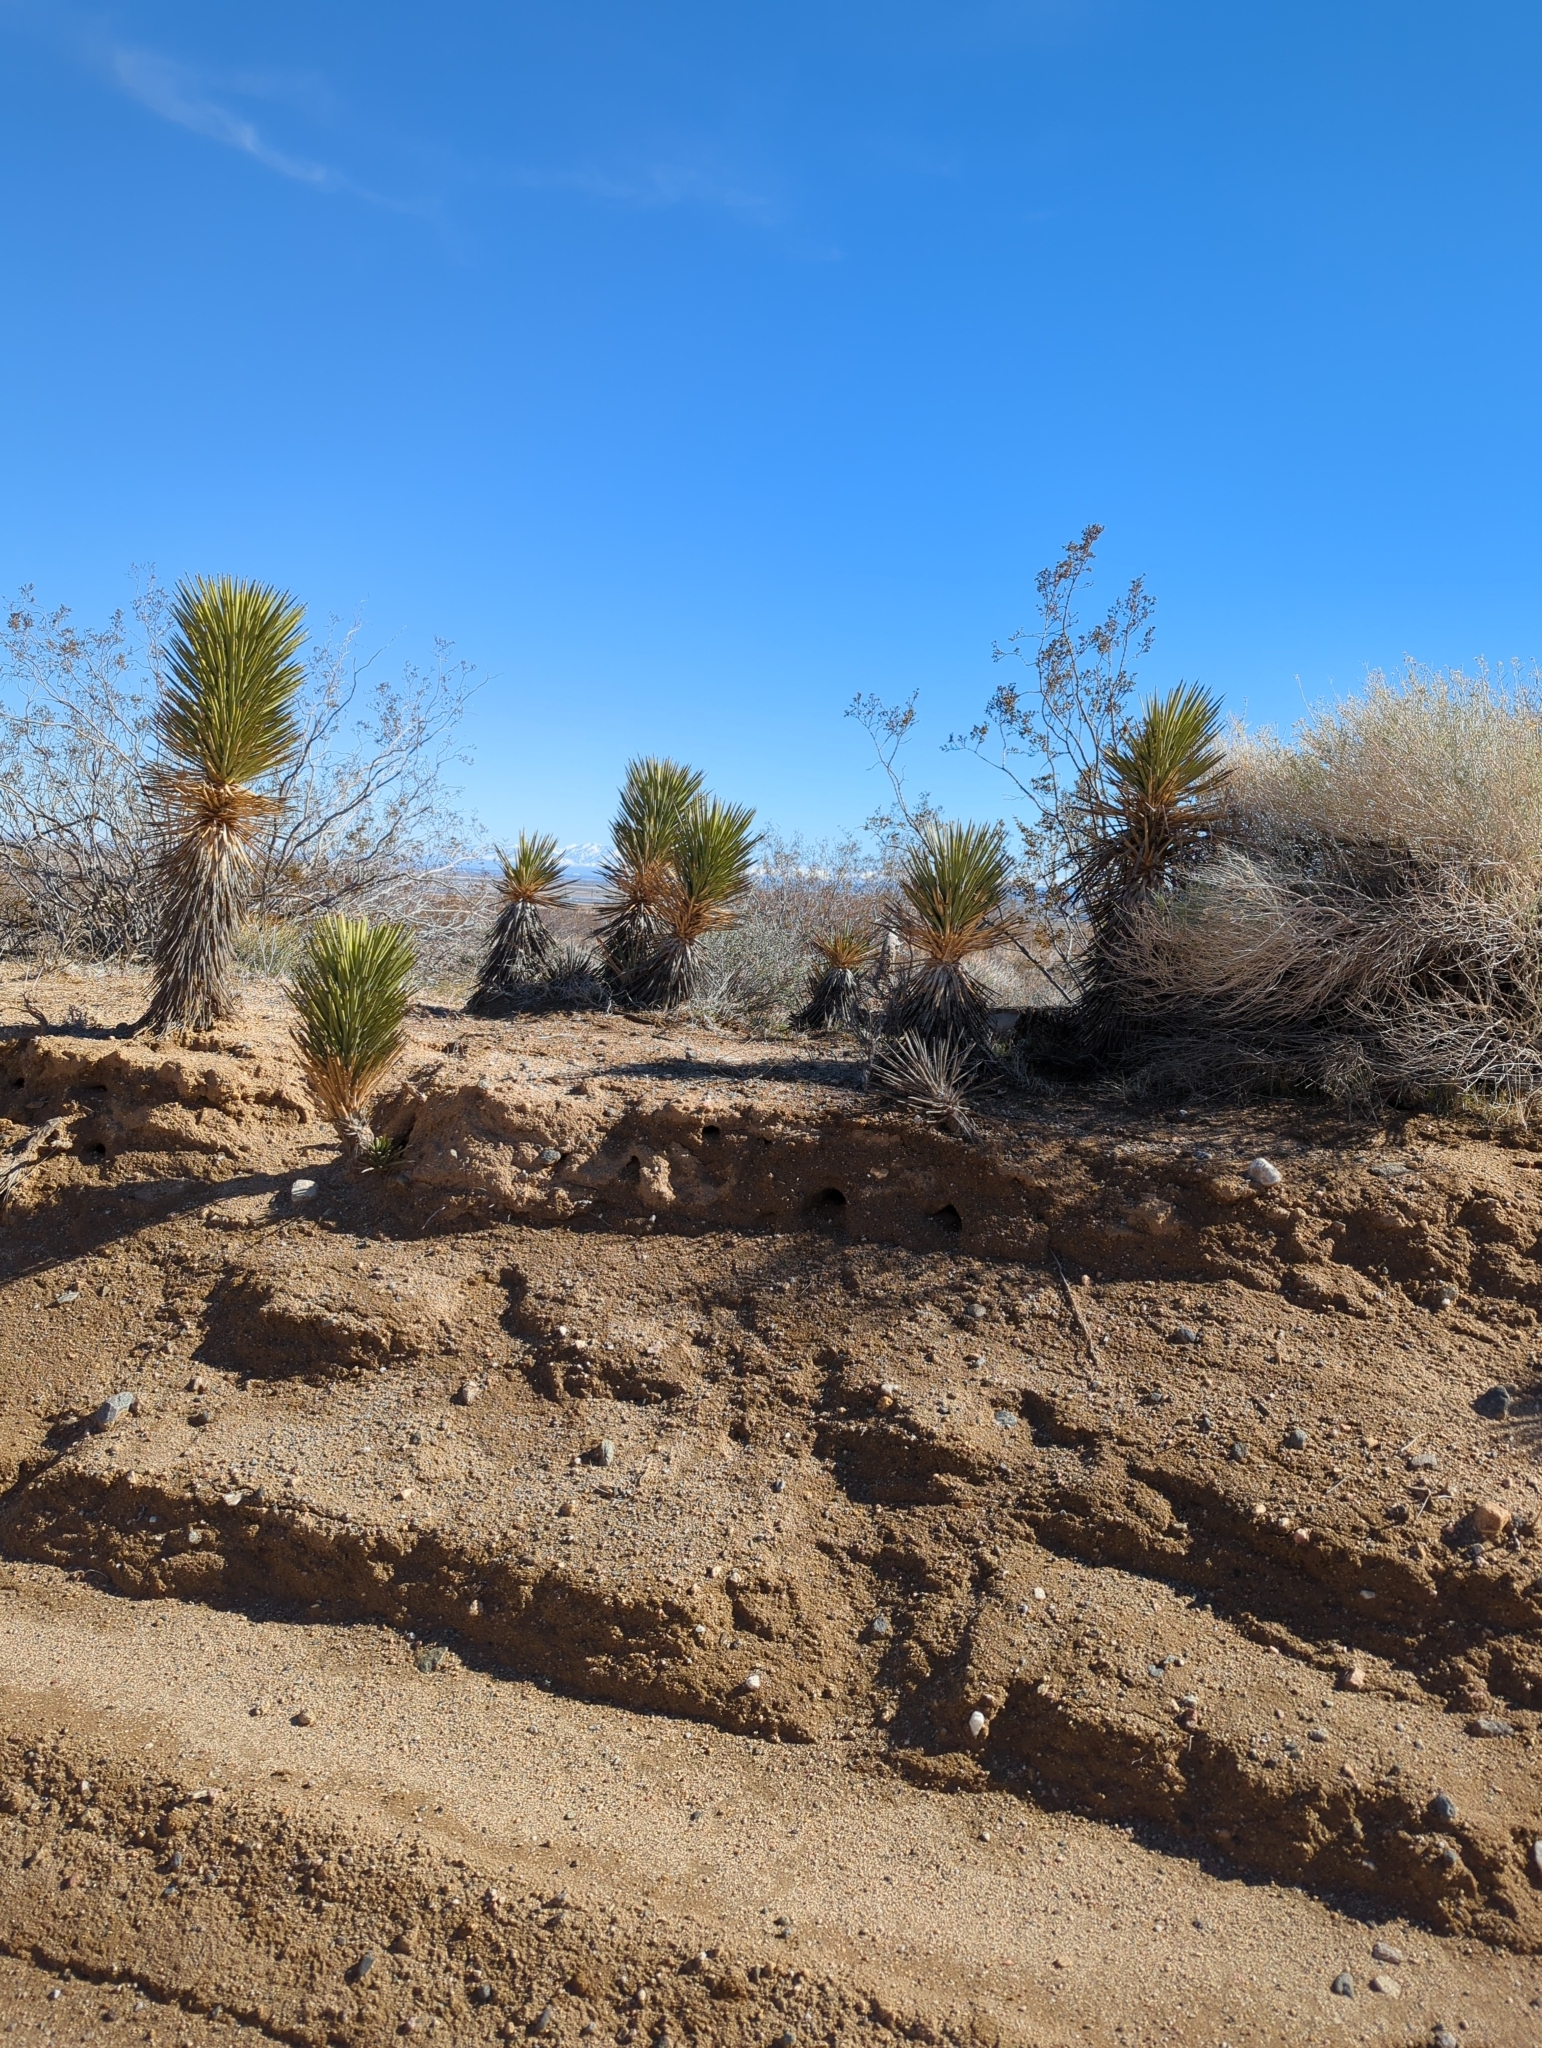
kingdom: Plantae
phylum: Tracheophyta
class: Liliopsida
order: Asparagales
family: Asparagaceae
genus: Yucca
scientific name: Yucca brevifolia
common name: Joshua tree
